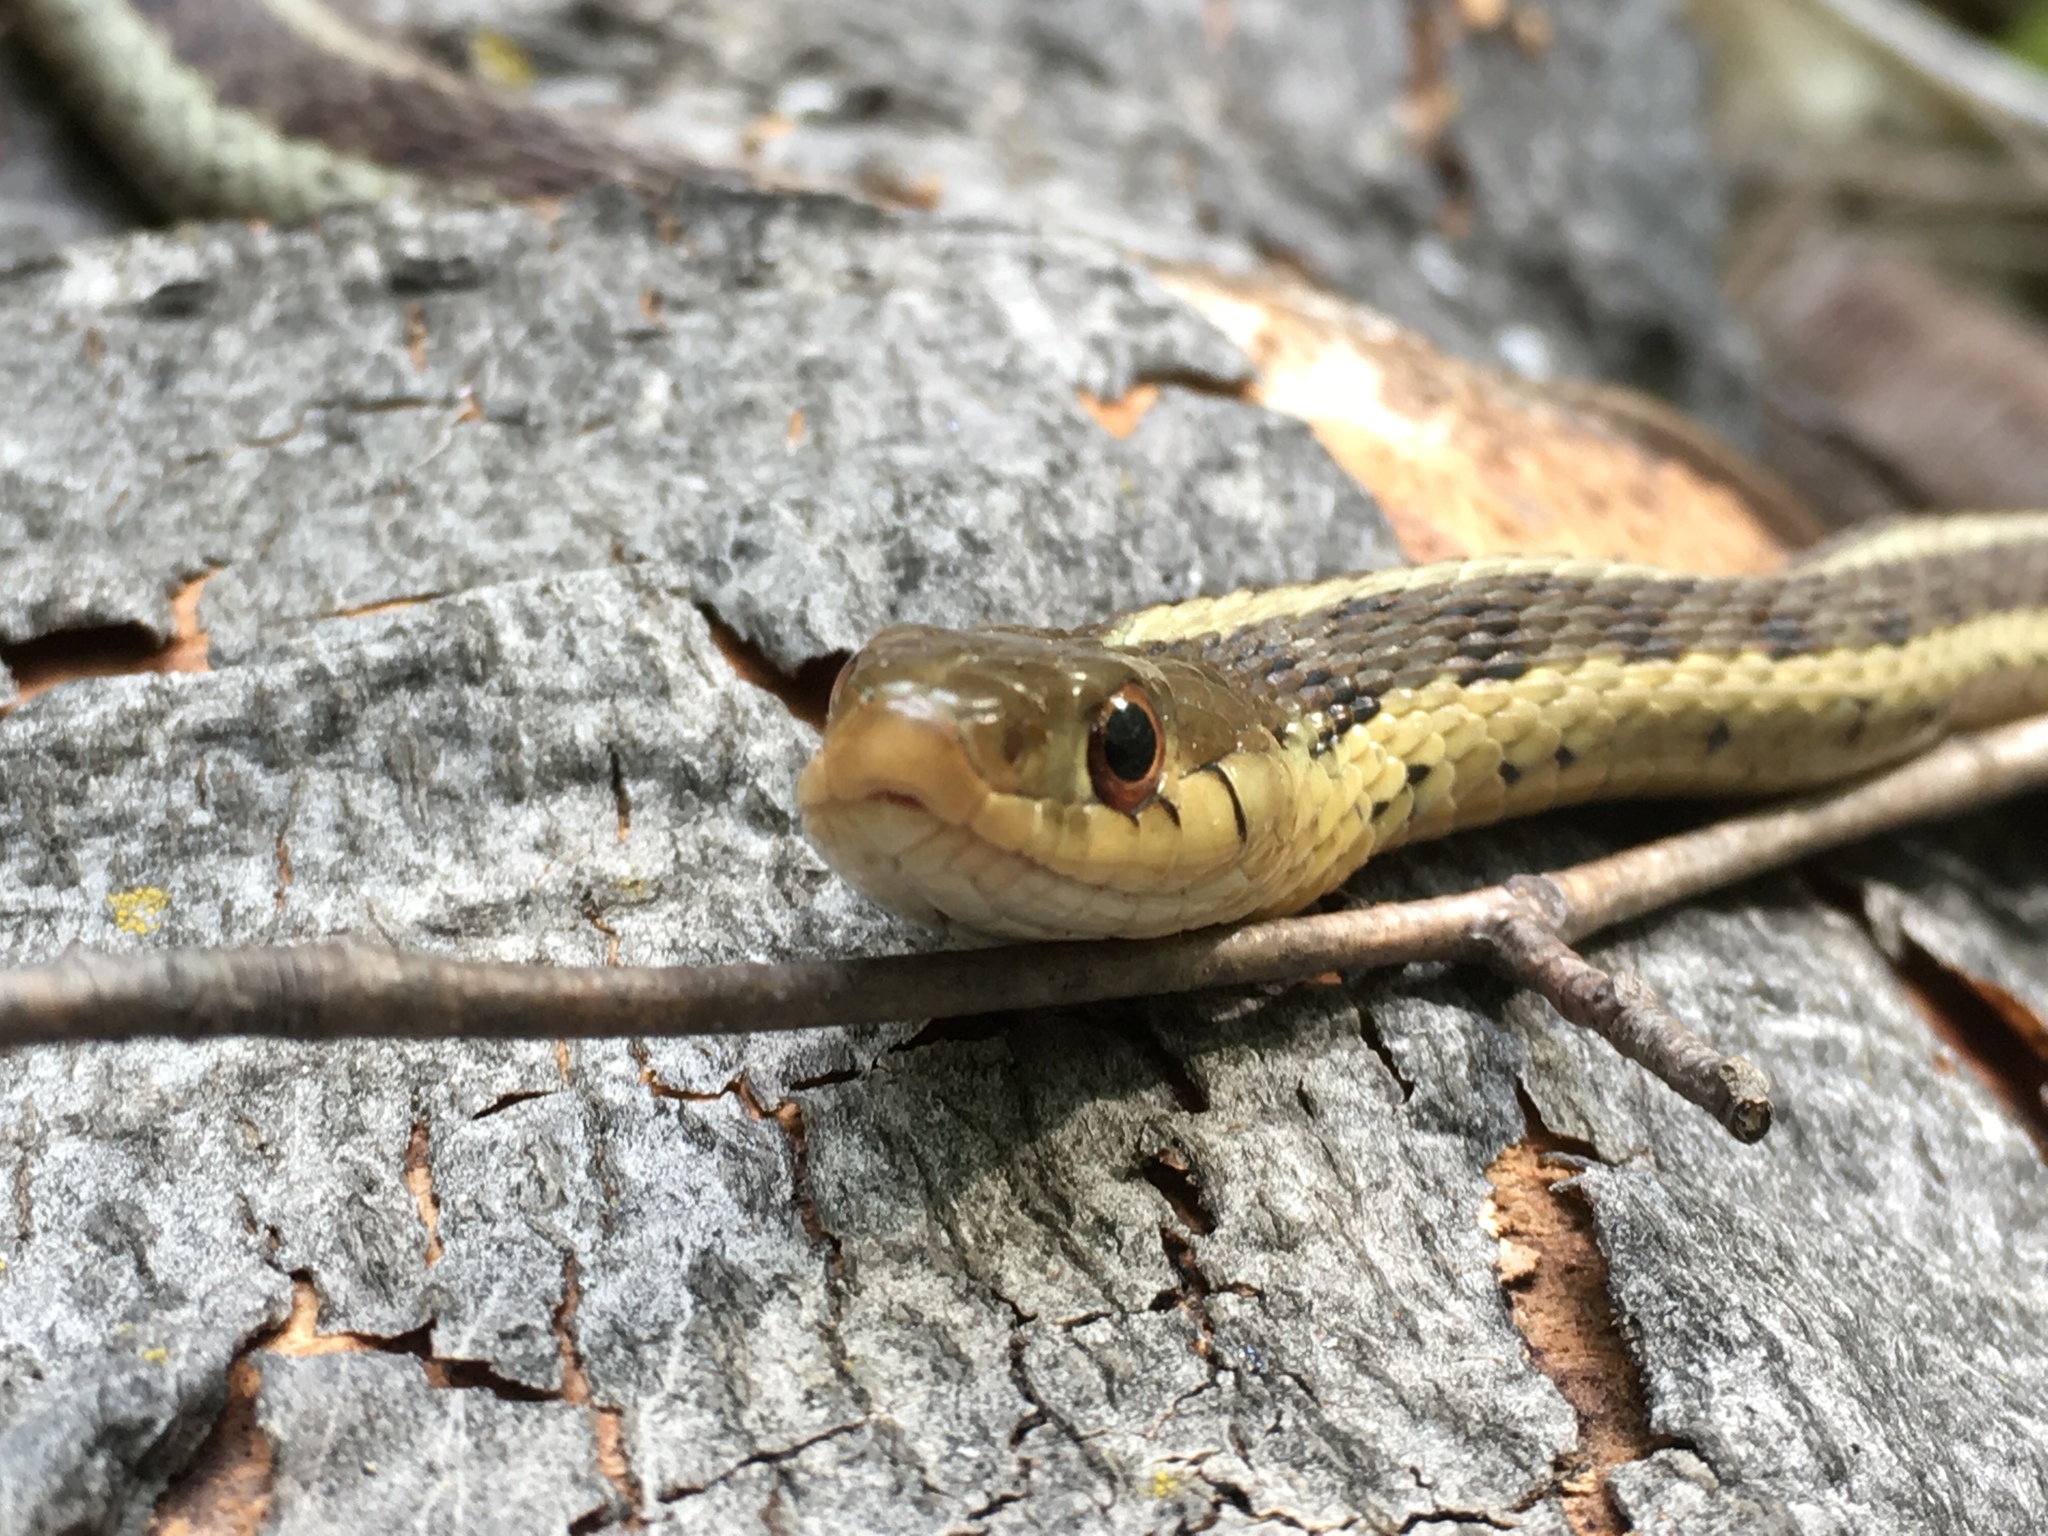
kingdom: Animalia
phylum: Chordata
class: Squamata
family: Colubridae
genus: Thamnophis
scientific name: Thamnophis sirtalis
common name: Common garter snake
